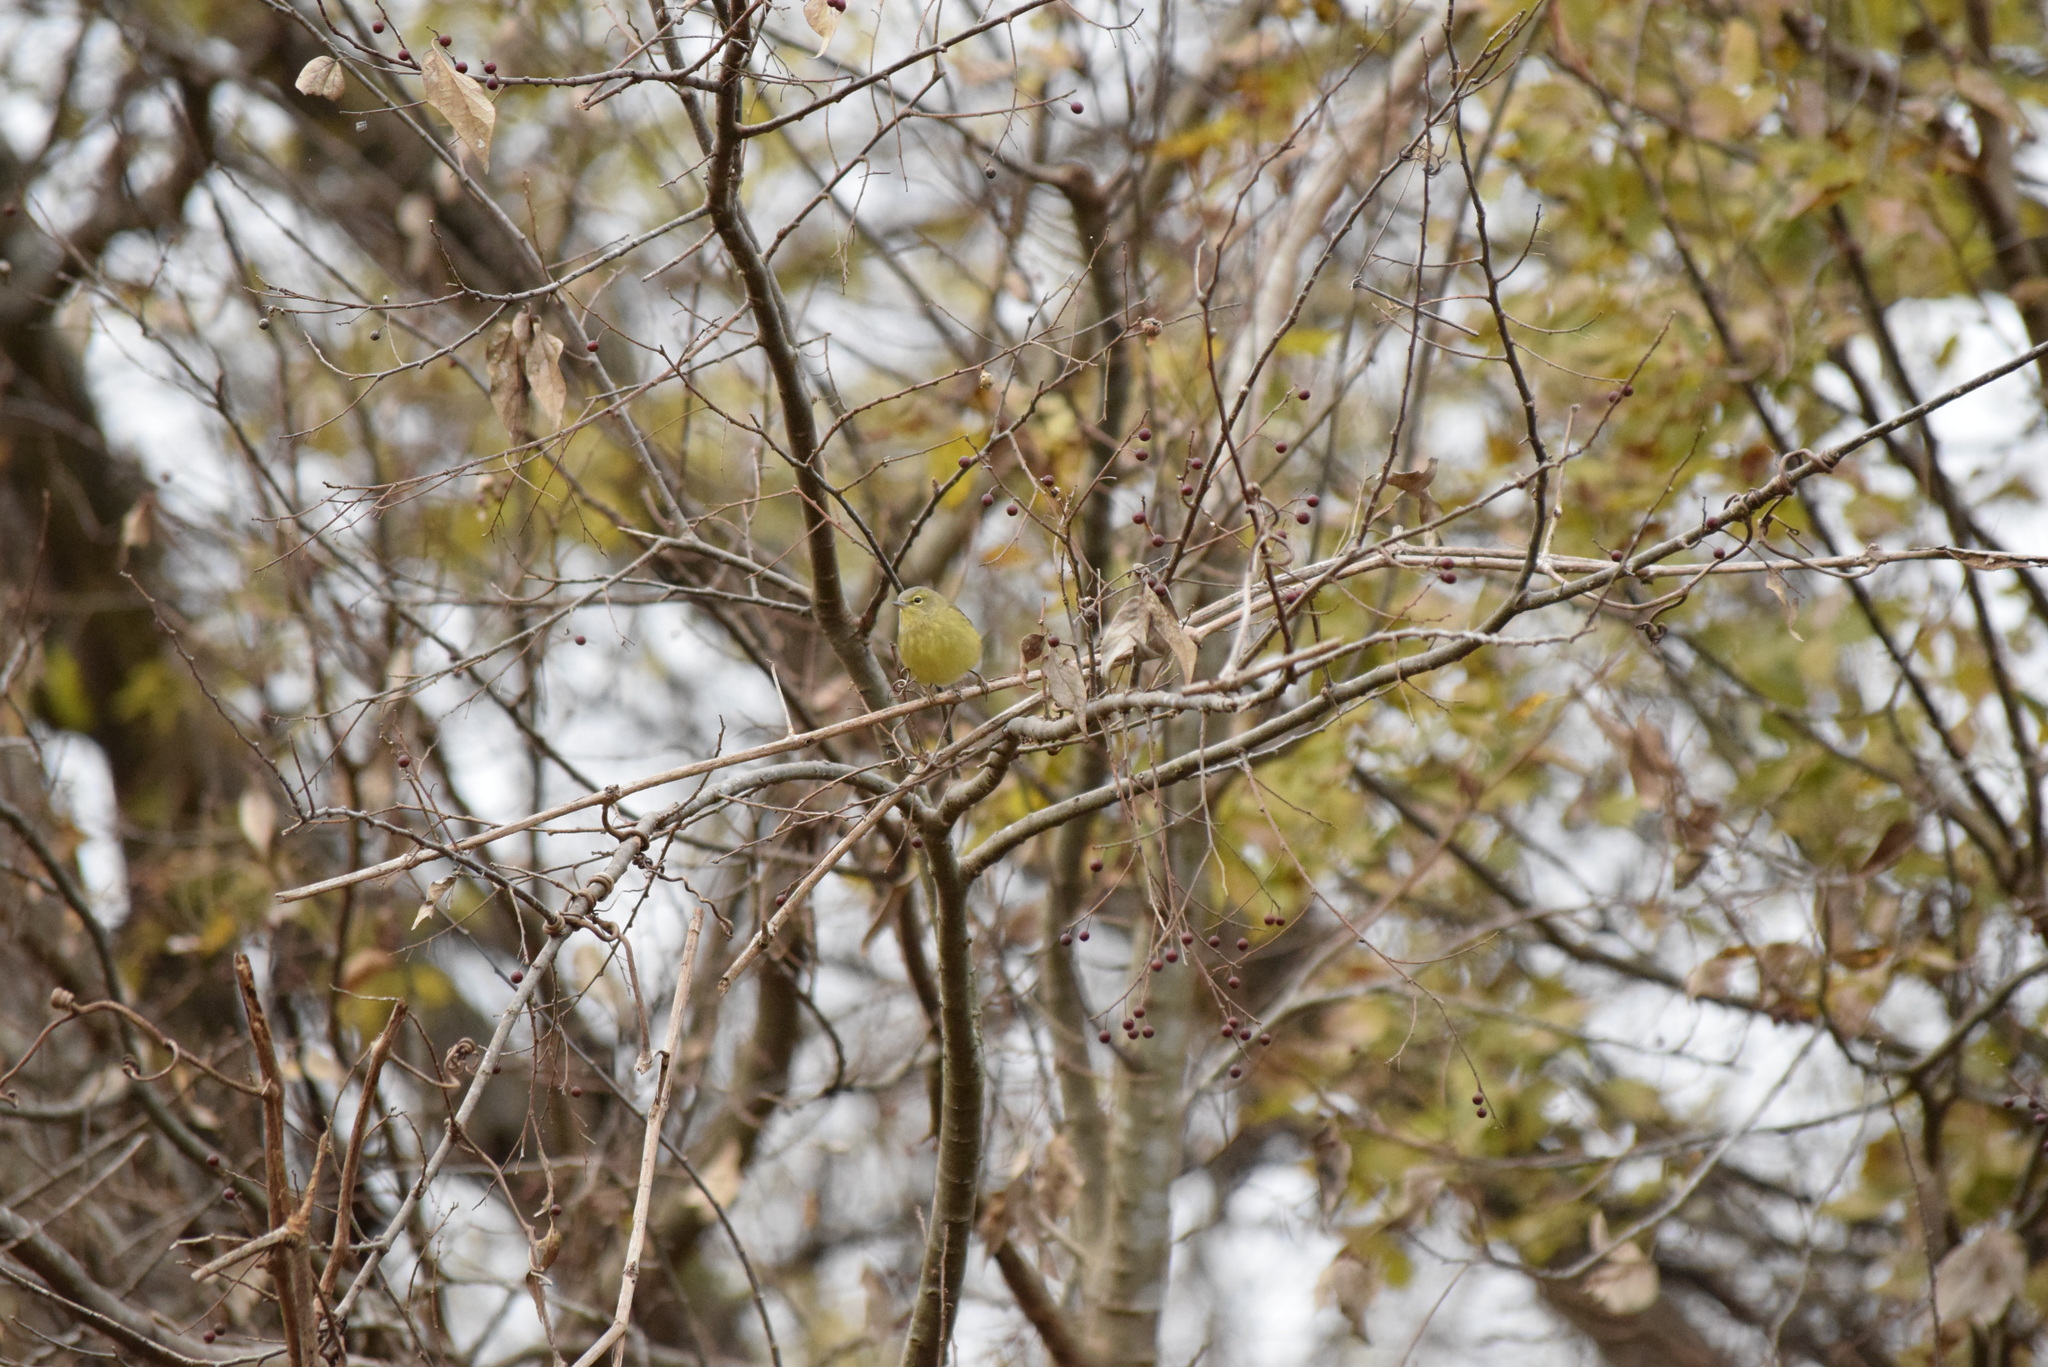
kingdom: Animalia
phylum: Chordata
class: Aves
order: Passeriformes
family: Parulidae
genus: Leiothlypis
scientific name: Leiothlypis celata
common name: Orange-crowned warbler
